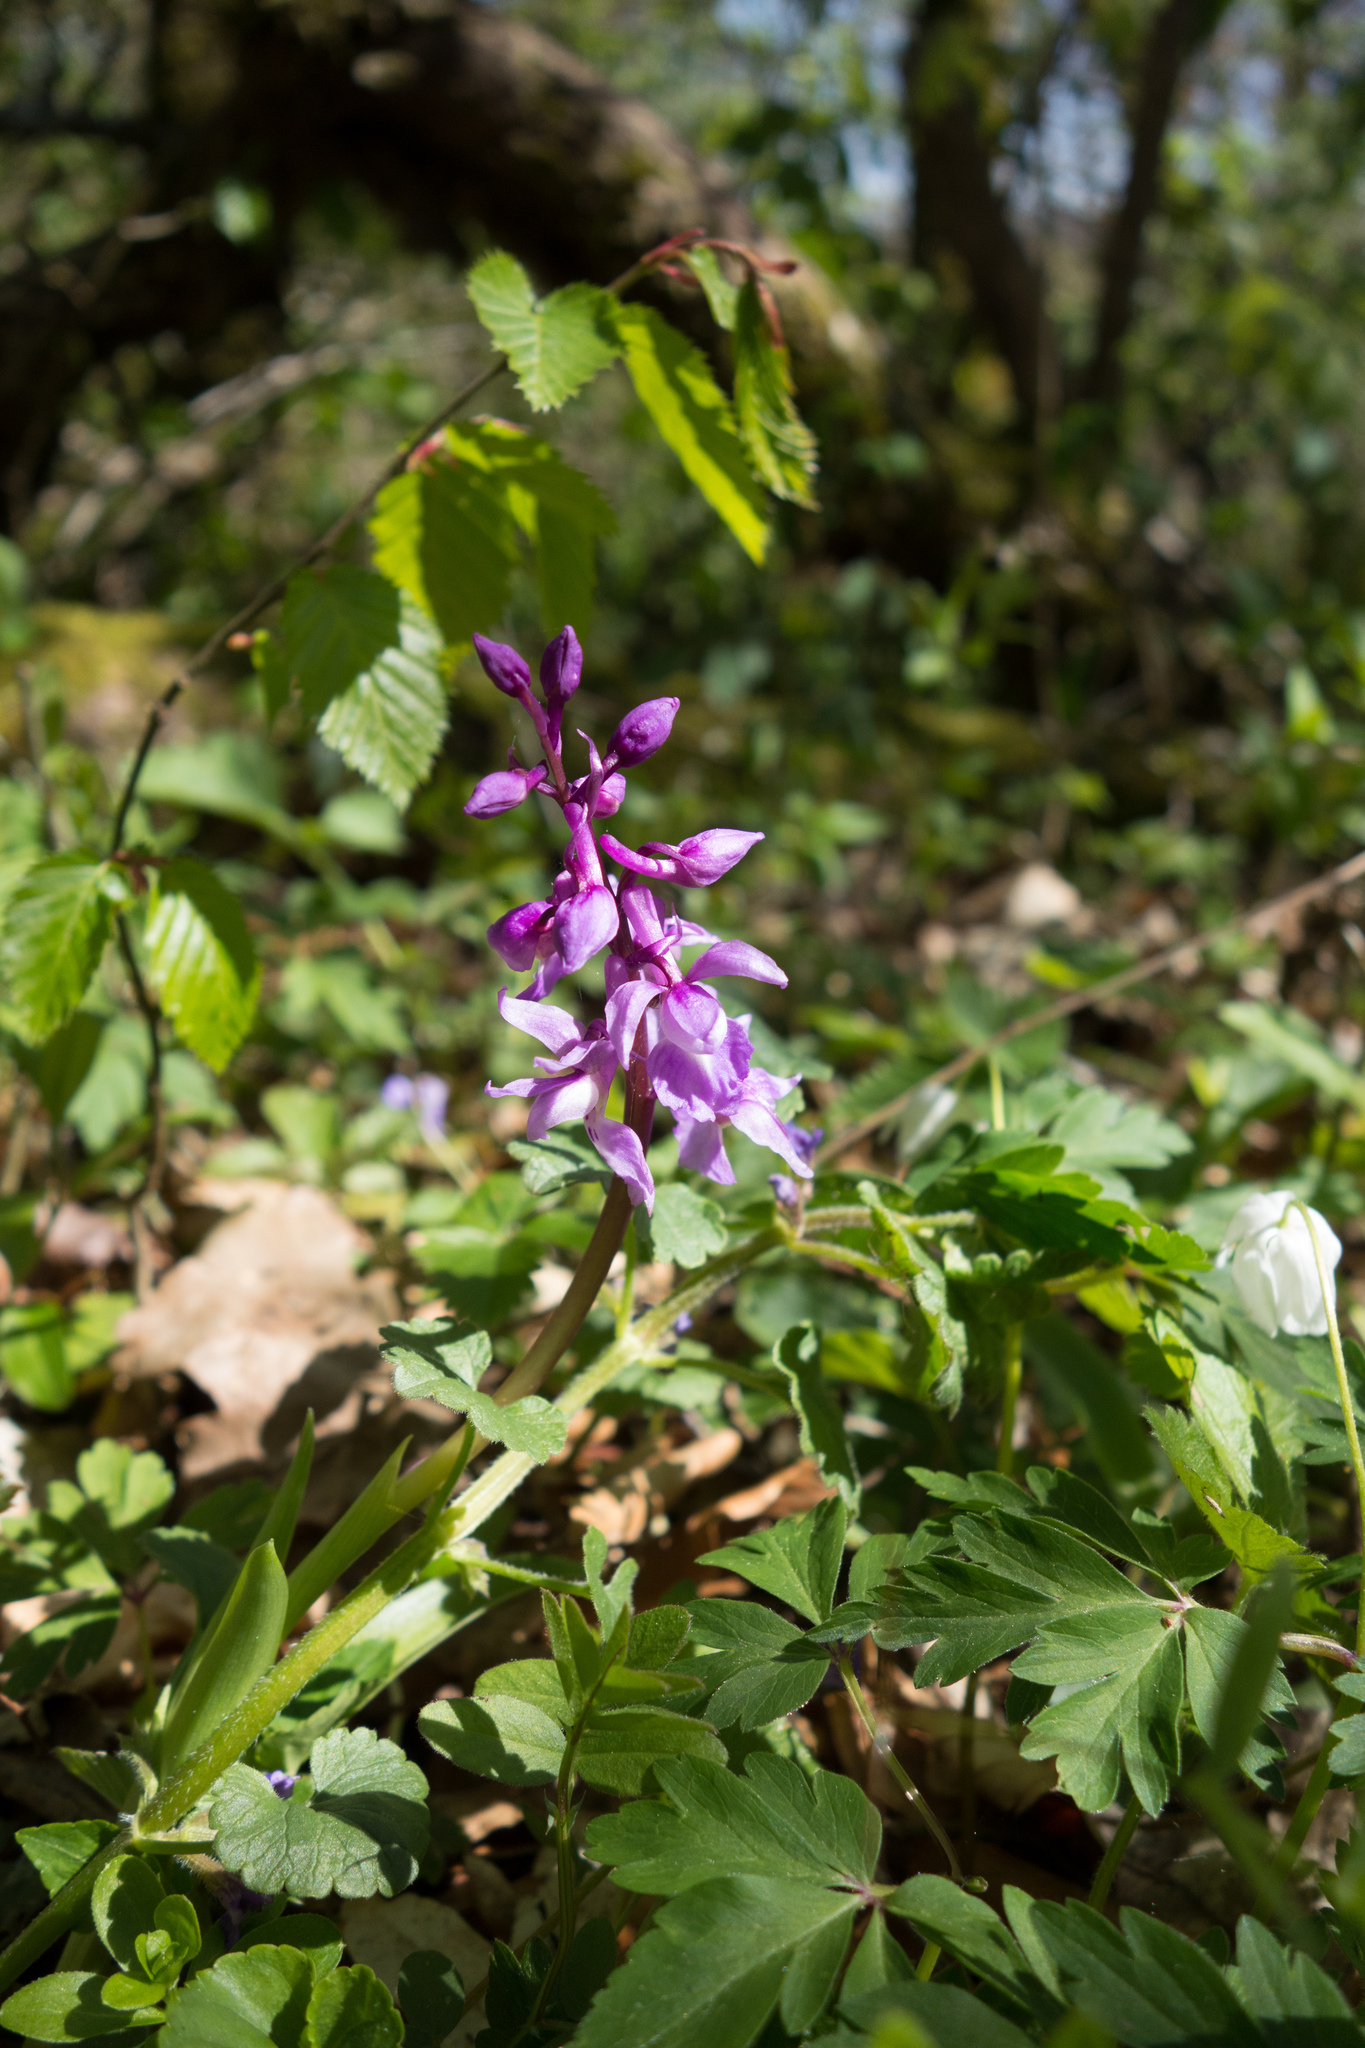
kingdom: Plantae
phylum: Tracheophyta
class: Liliopsida
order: Asparagales
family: Orchidaceae
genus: Orchis
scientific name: Orchis mascula
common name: Early-purple orchid
